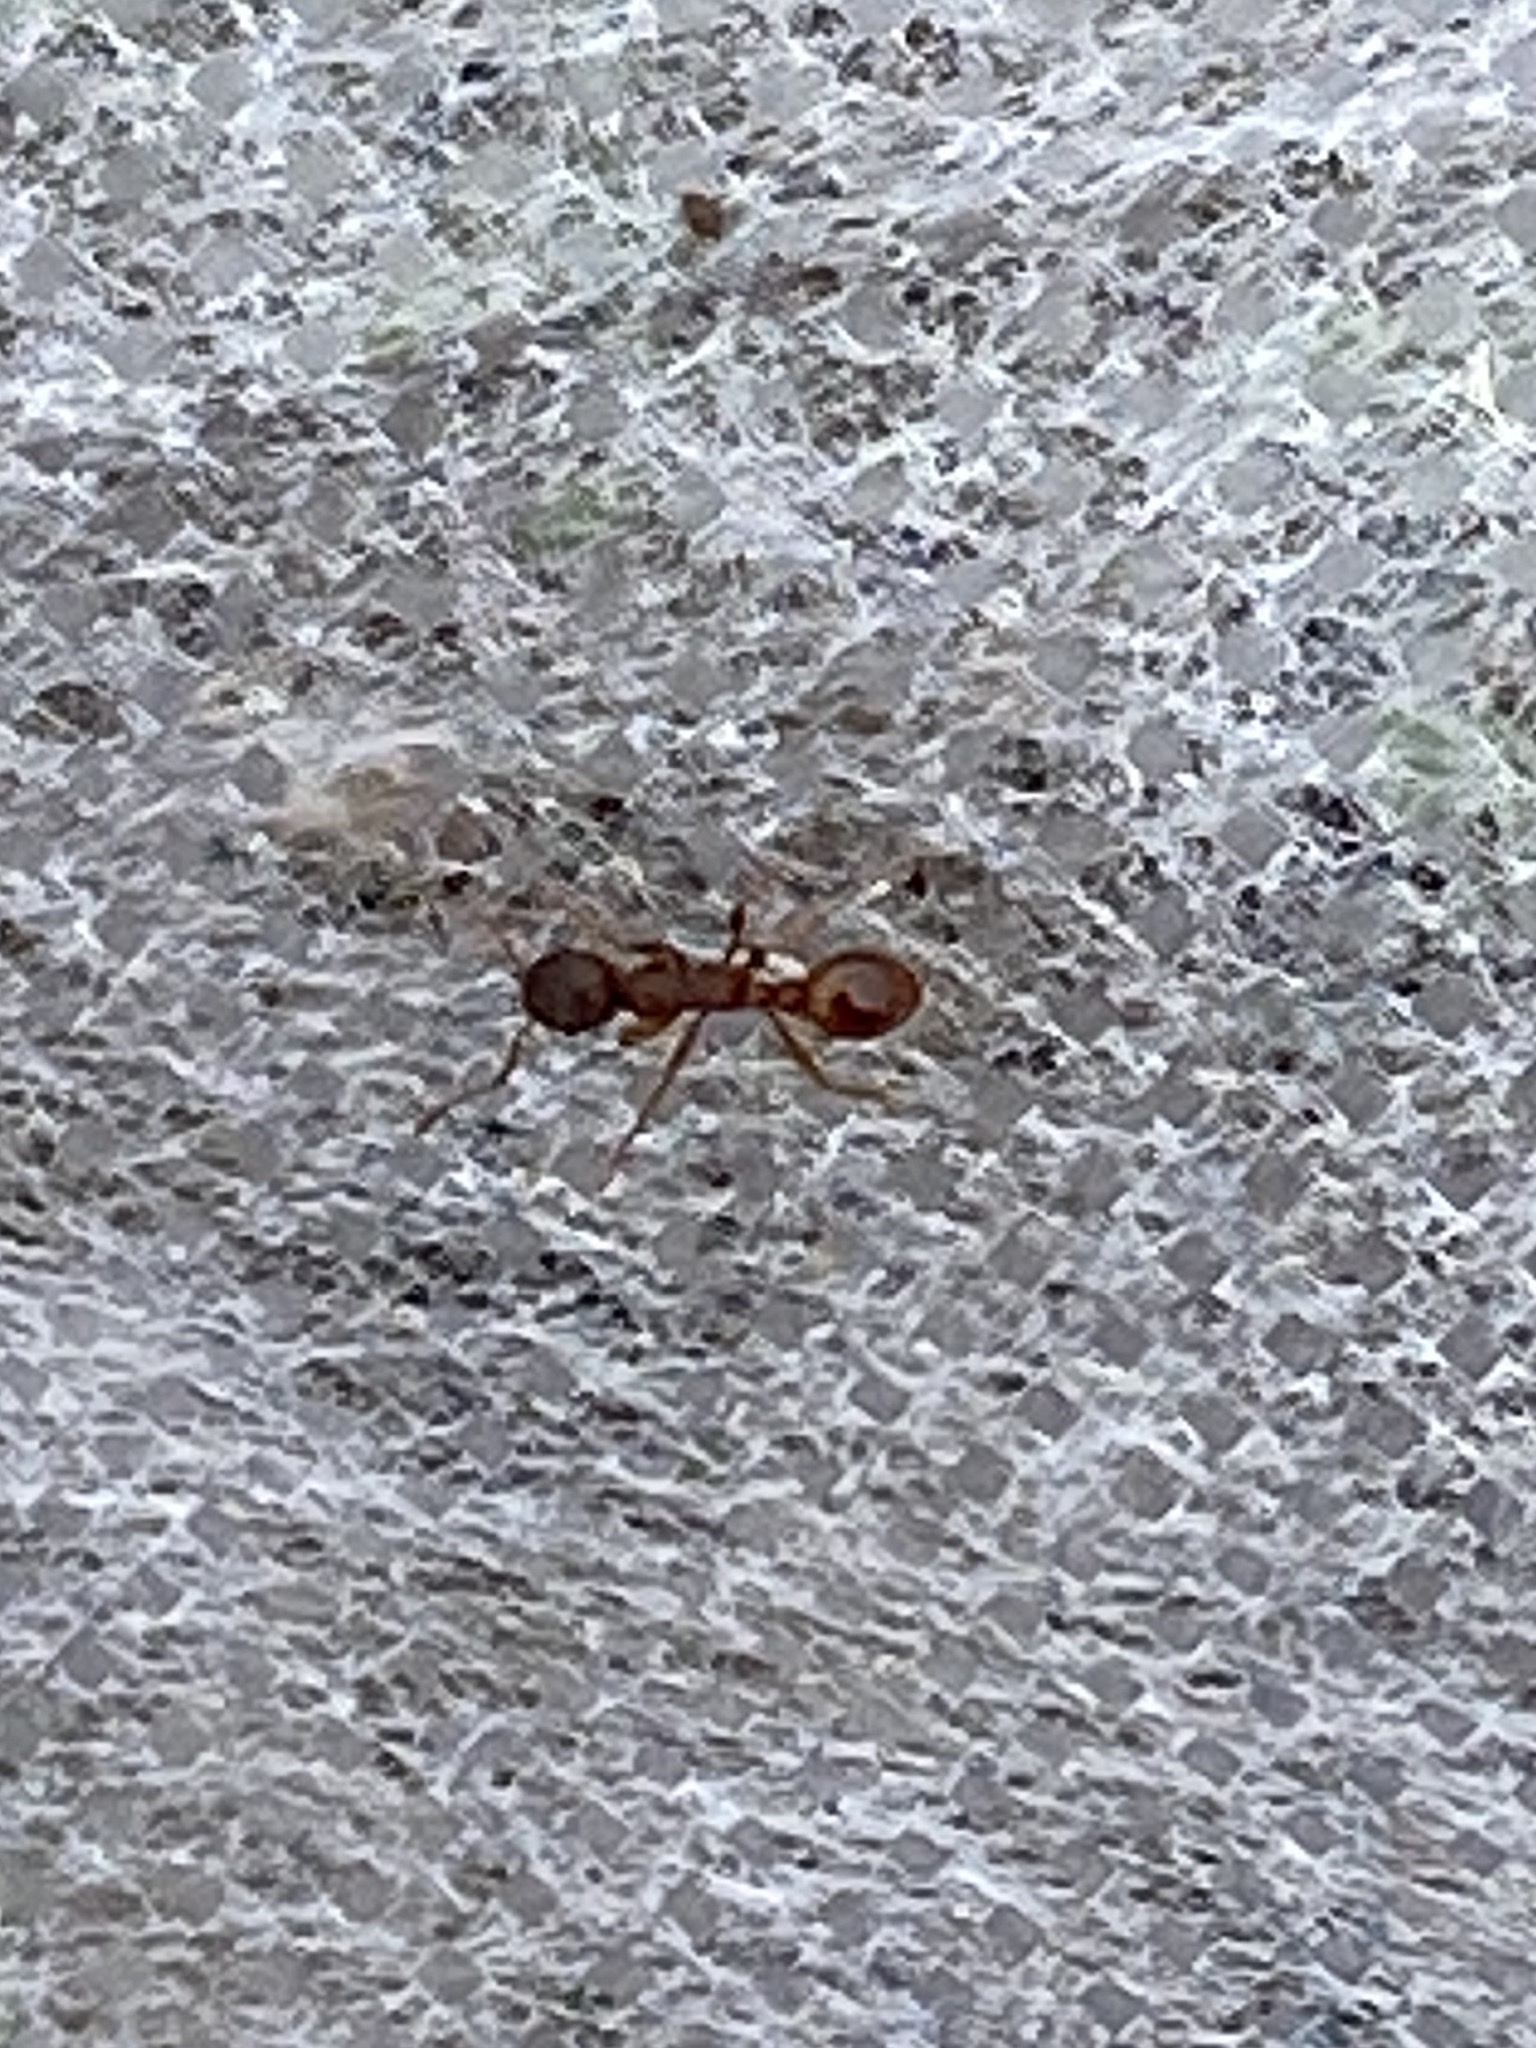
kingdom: Animalia
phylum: Arthropoda
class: Insecta
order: Hymenoptera
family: Formicidae
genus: Myrmecina
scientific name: Myrmecina
